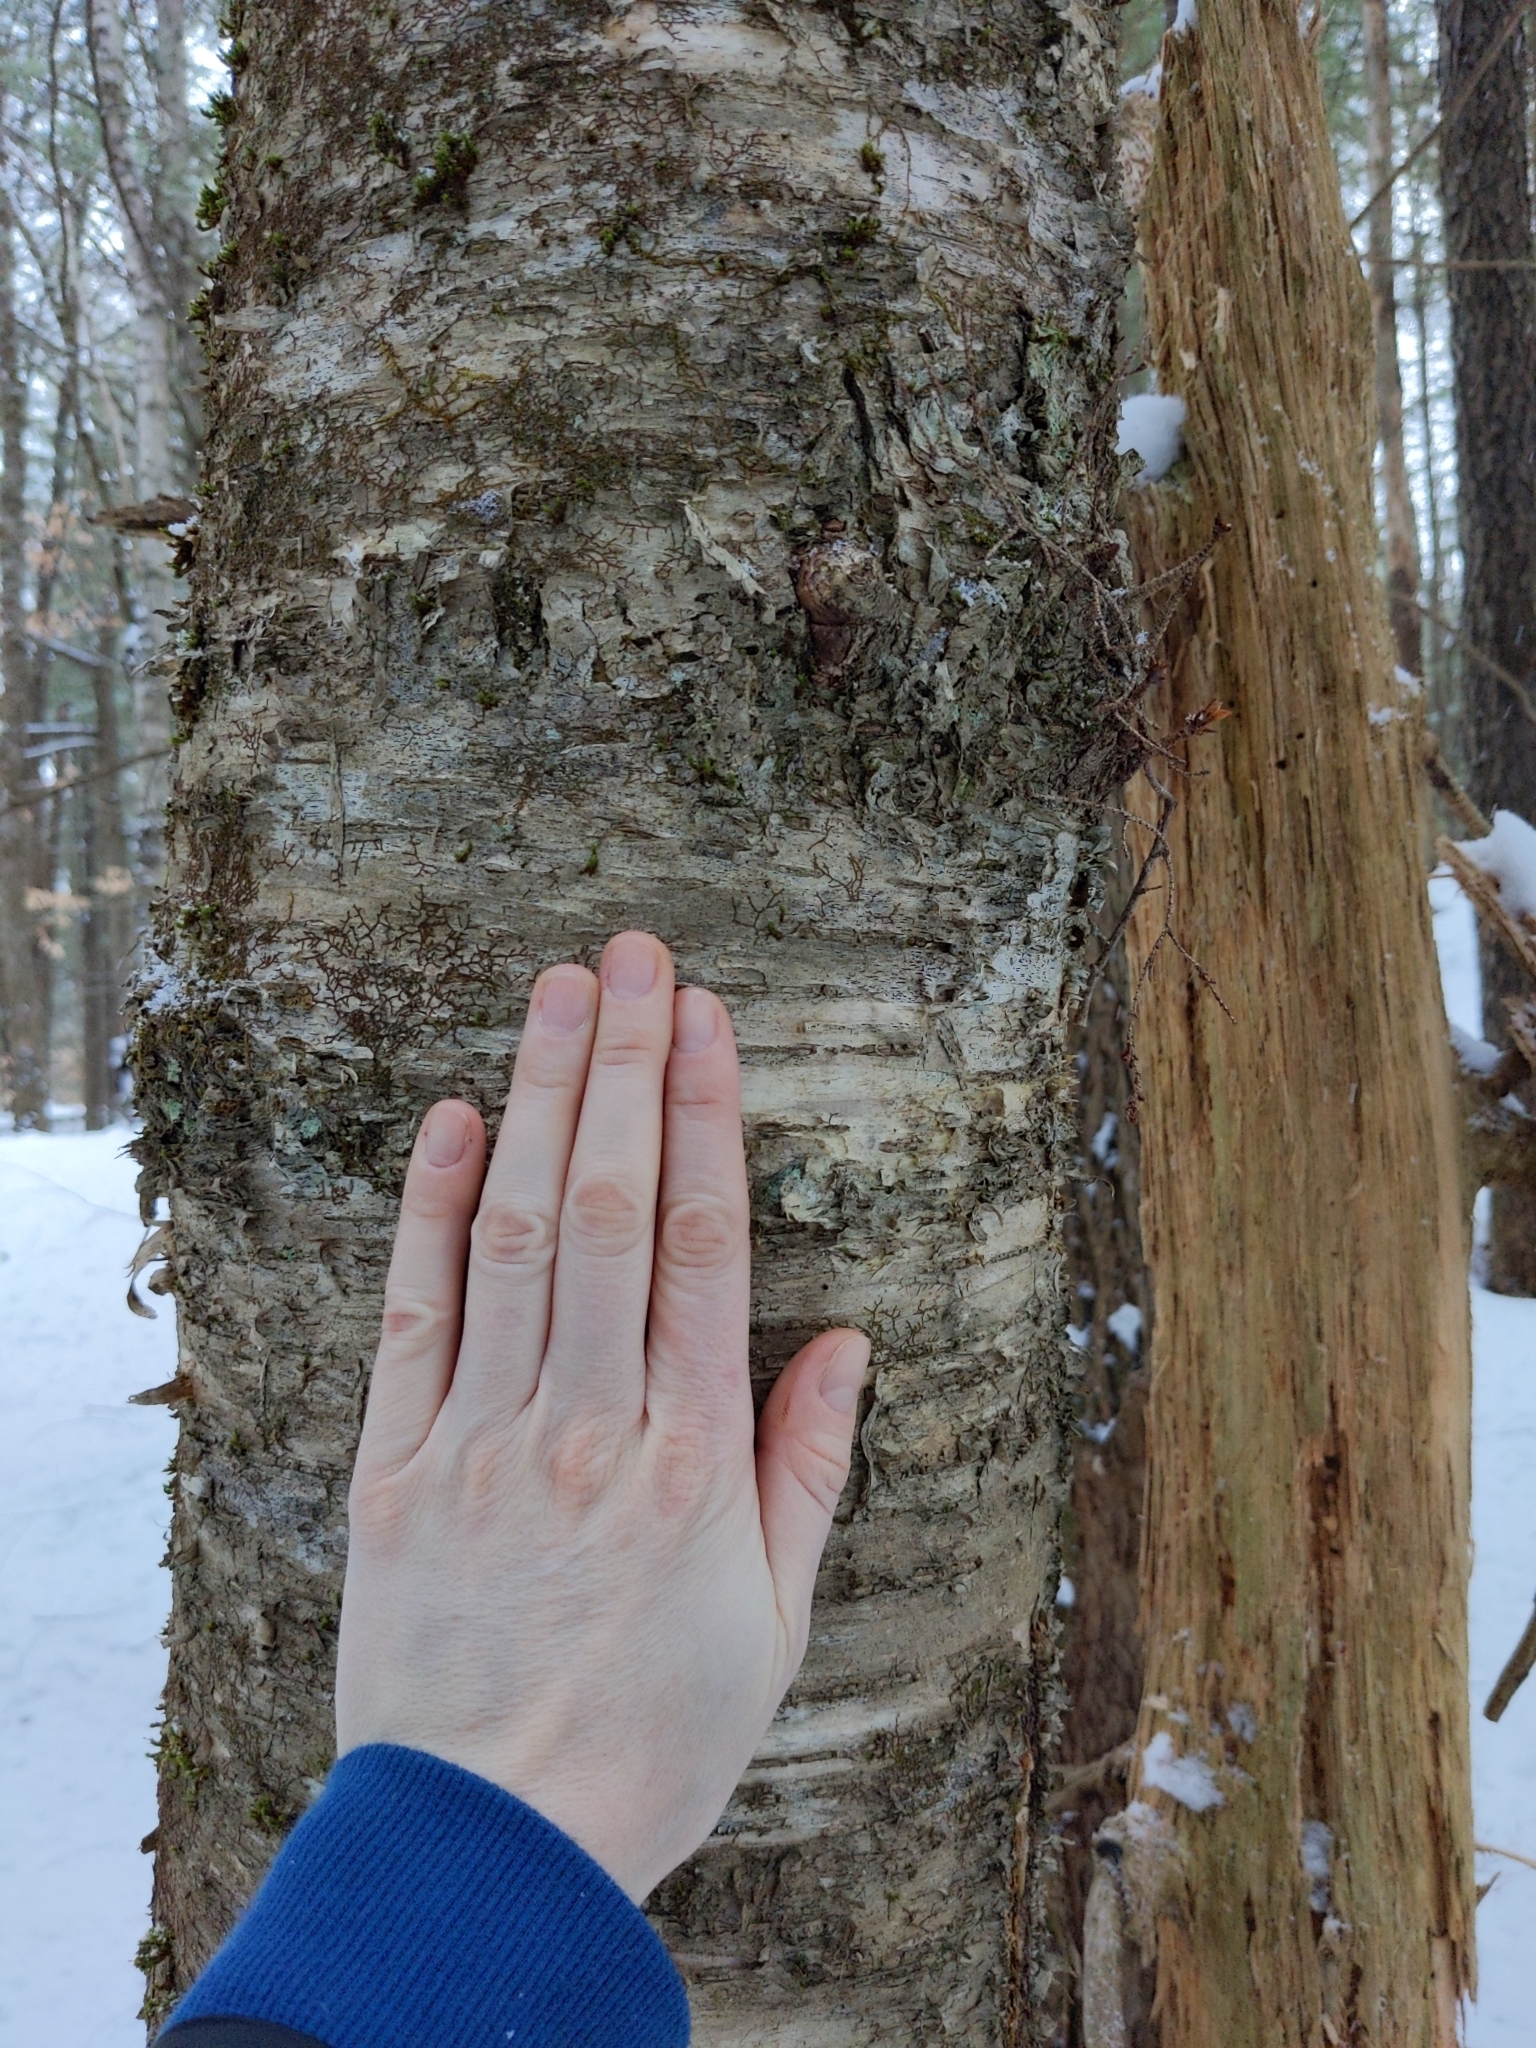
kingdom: Plantae
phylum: Tracheophyta
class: Magnoliopsida
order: Fagales
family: Betulaceae
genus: Betula
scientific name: Betula alleghaniensis
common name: Yellow birch
